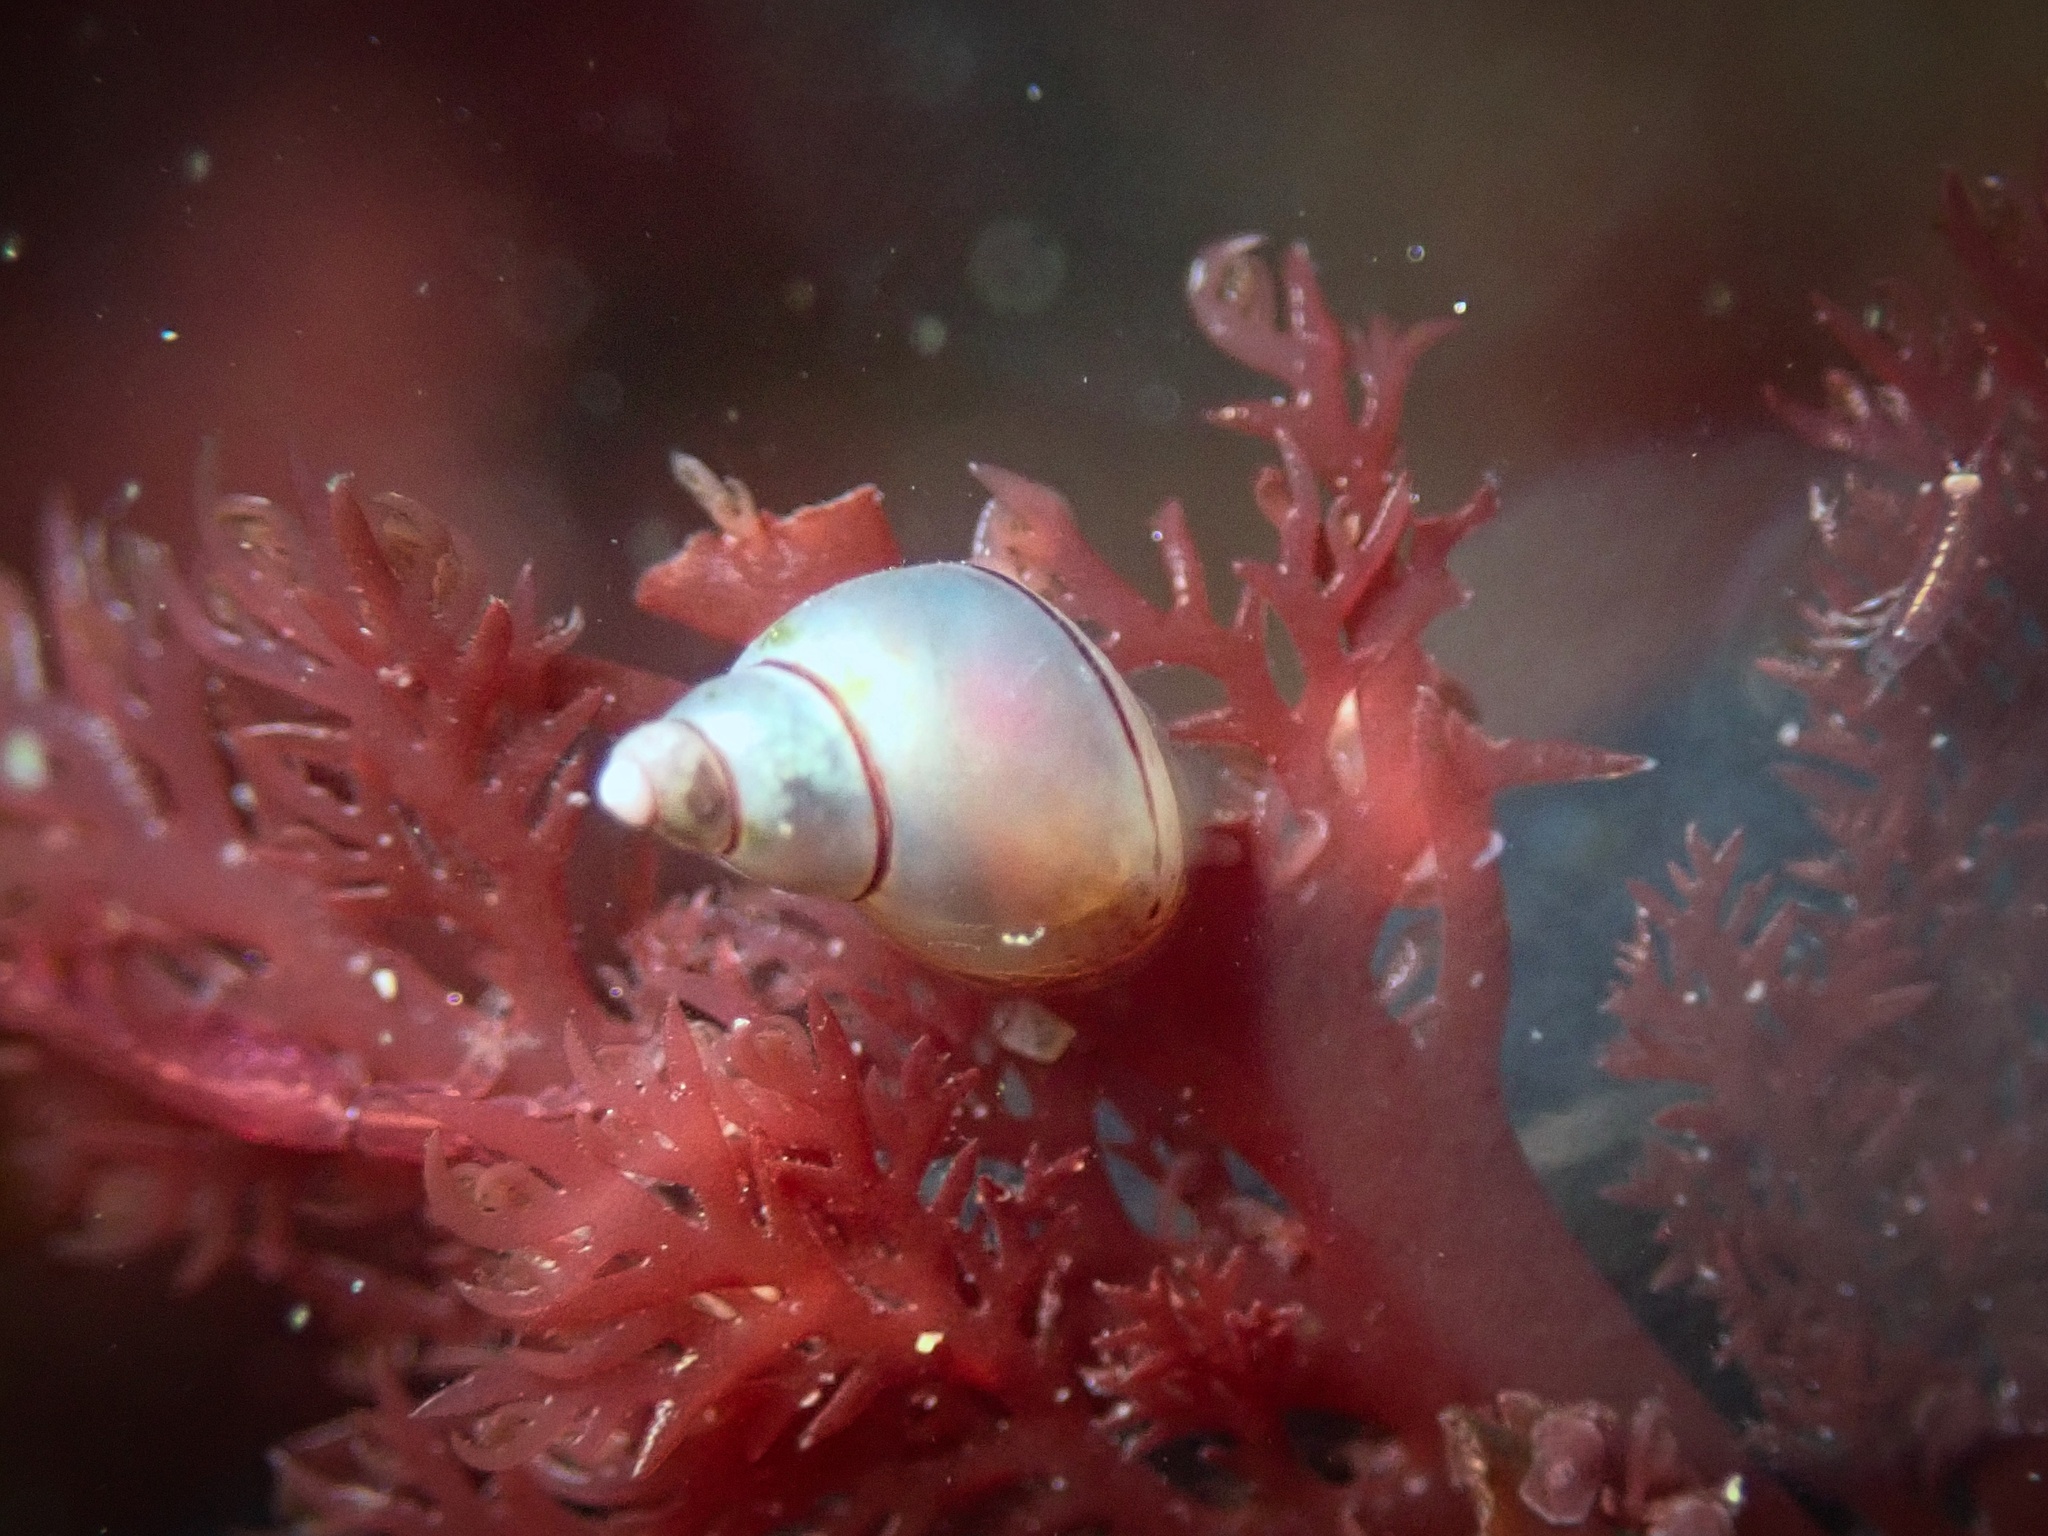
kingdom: Animalia
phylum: Mollusca
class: Gastropoda
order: Littorinimorpha
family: Littorinidae
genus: Lacuna
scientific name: Lacuna unifasciata
